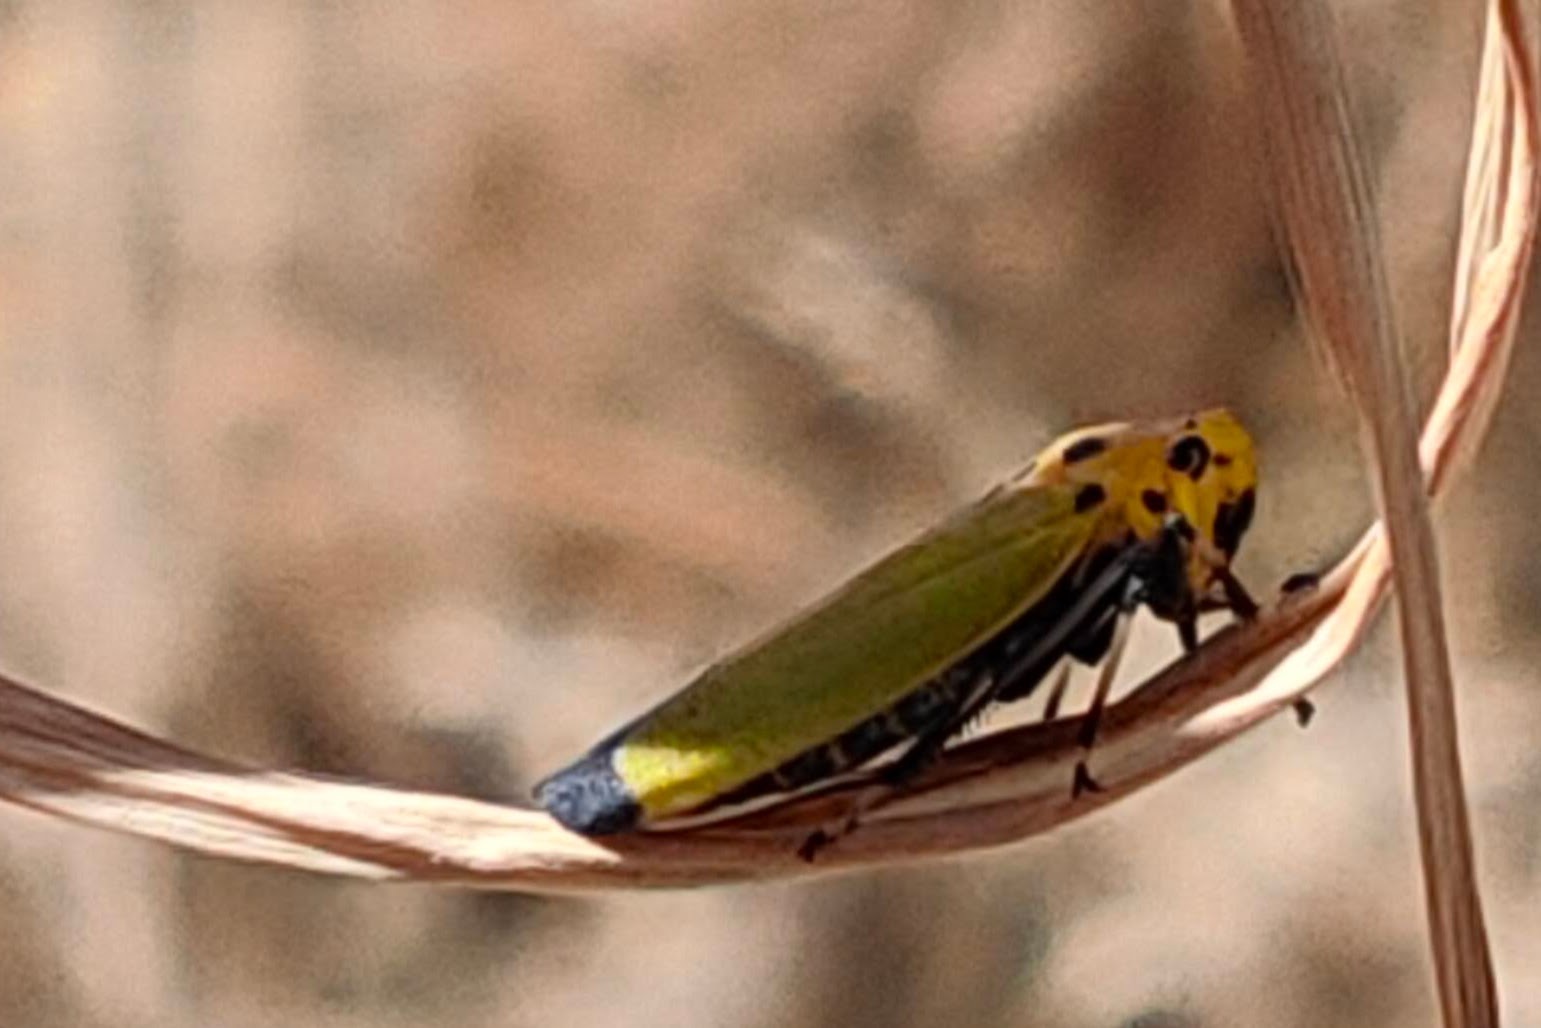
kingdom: Animalia
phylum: Arthropoda
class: Insecta
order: Hemiptera
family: Cicadellidae
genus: Bothrogonia
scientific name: Bothrogonia ferruginea
